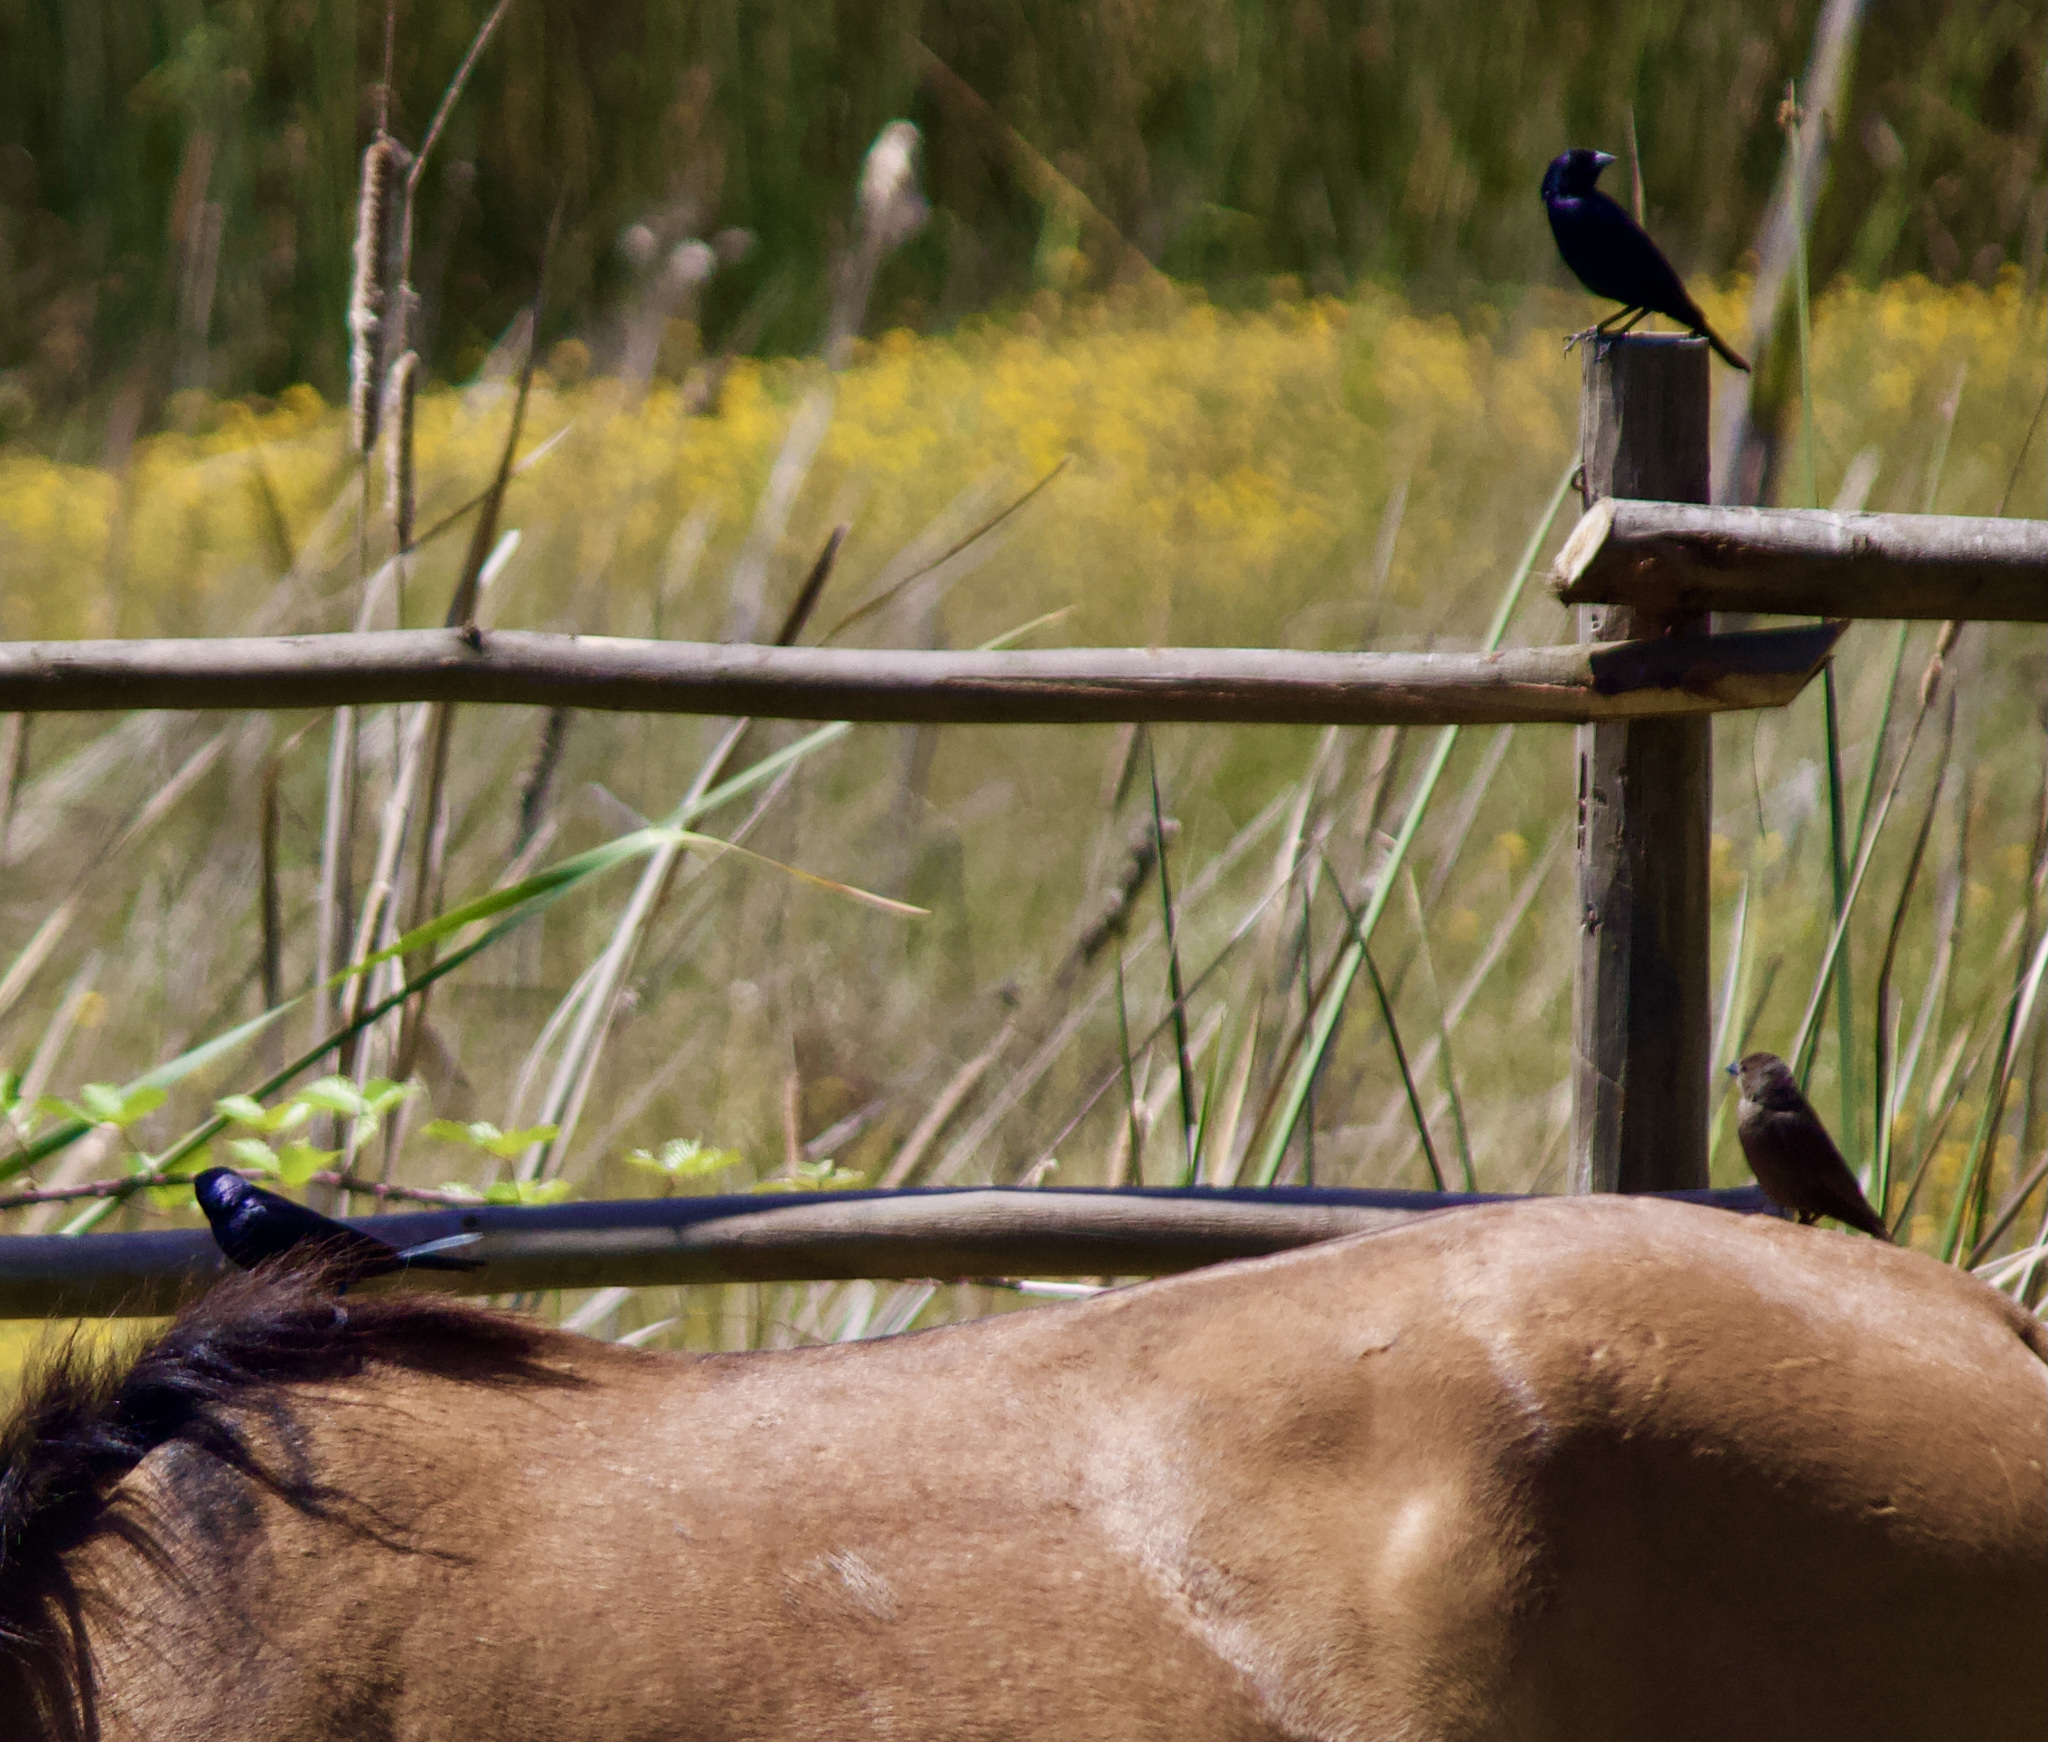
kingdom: Animalia
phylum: Chordata
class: Aves
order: Passeriformes
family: Icteridae
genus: Molothrus
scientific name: Molothrus bonariensis
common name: Shiny cowbird
